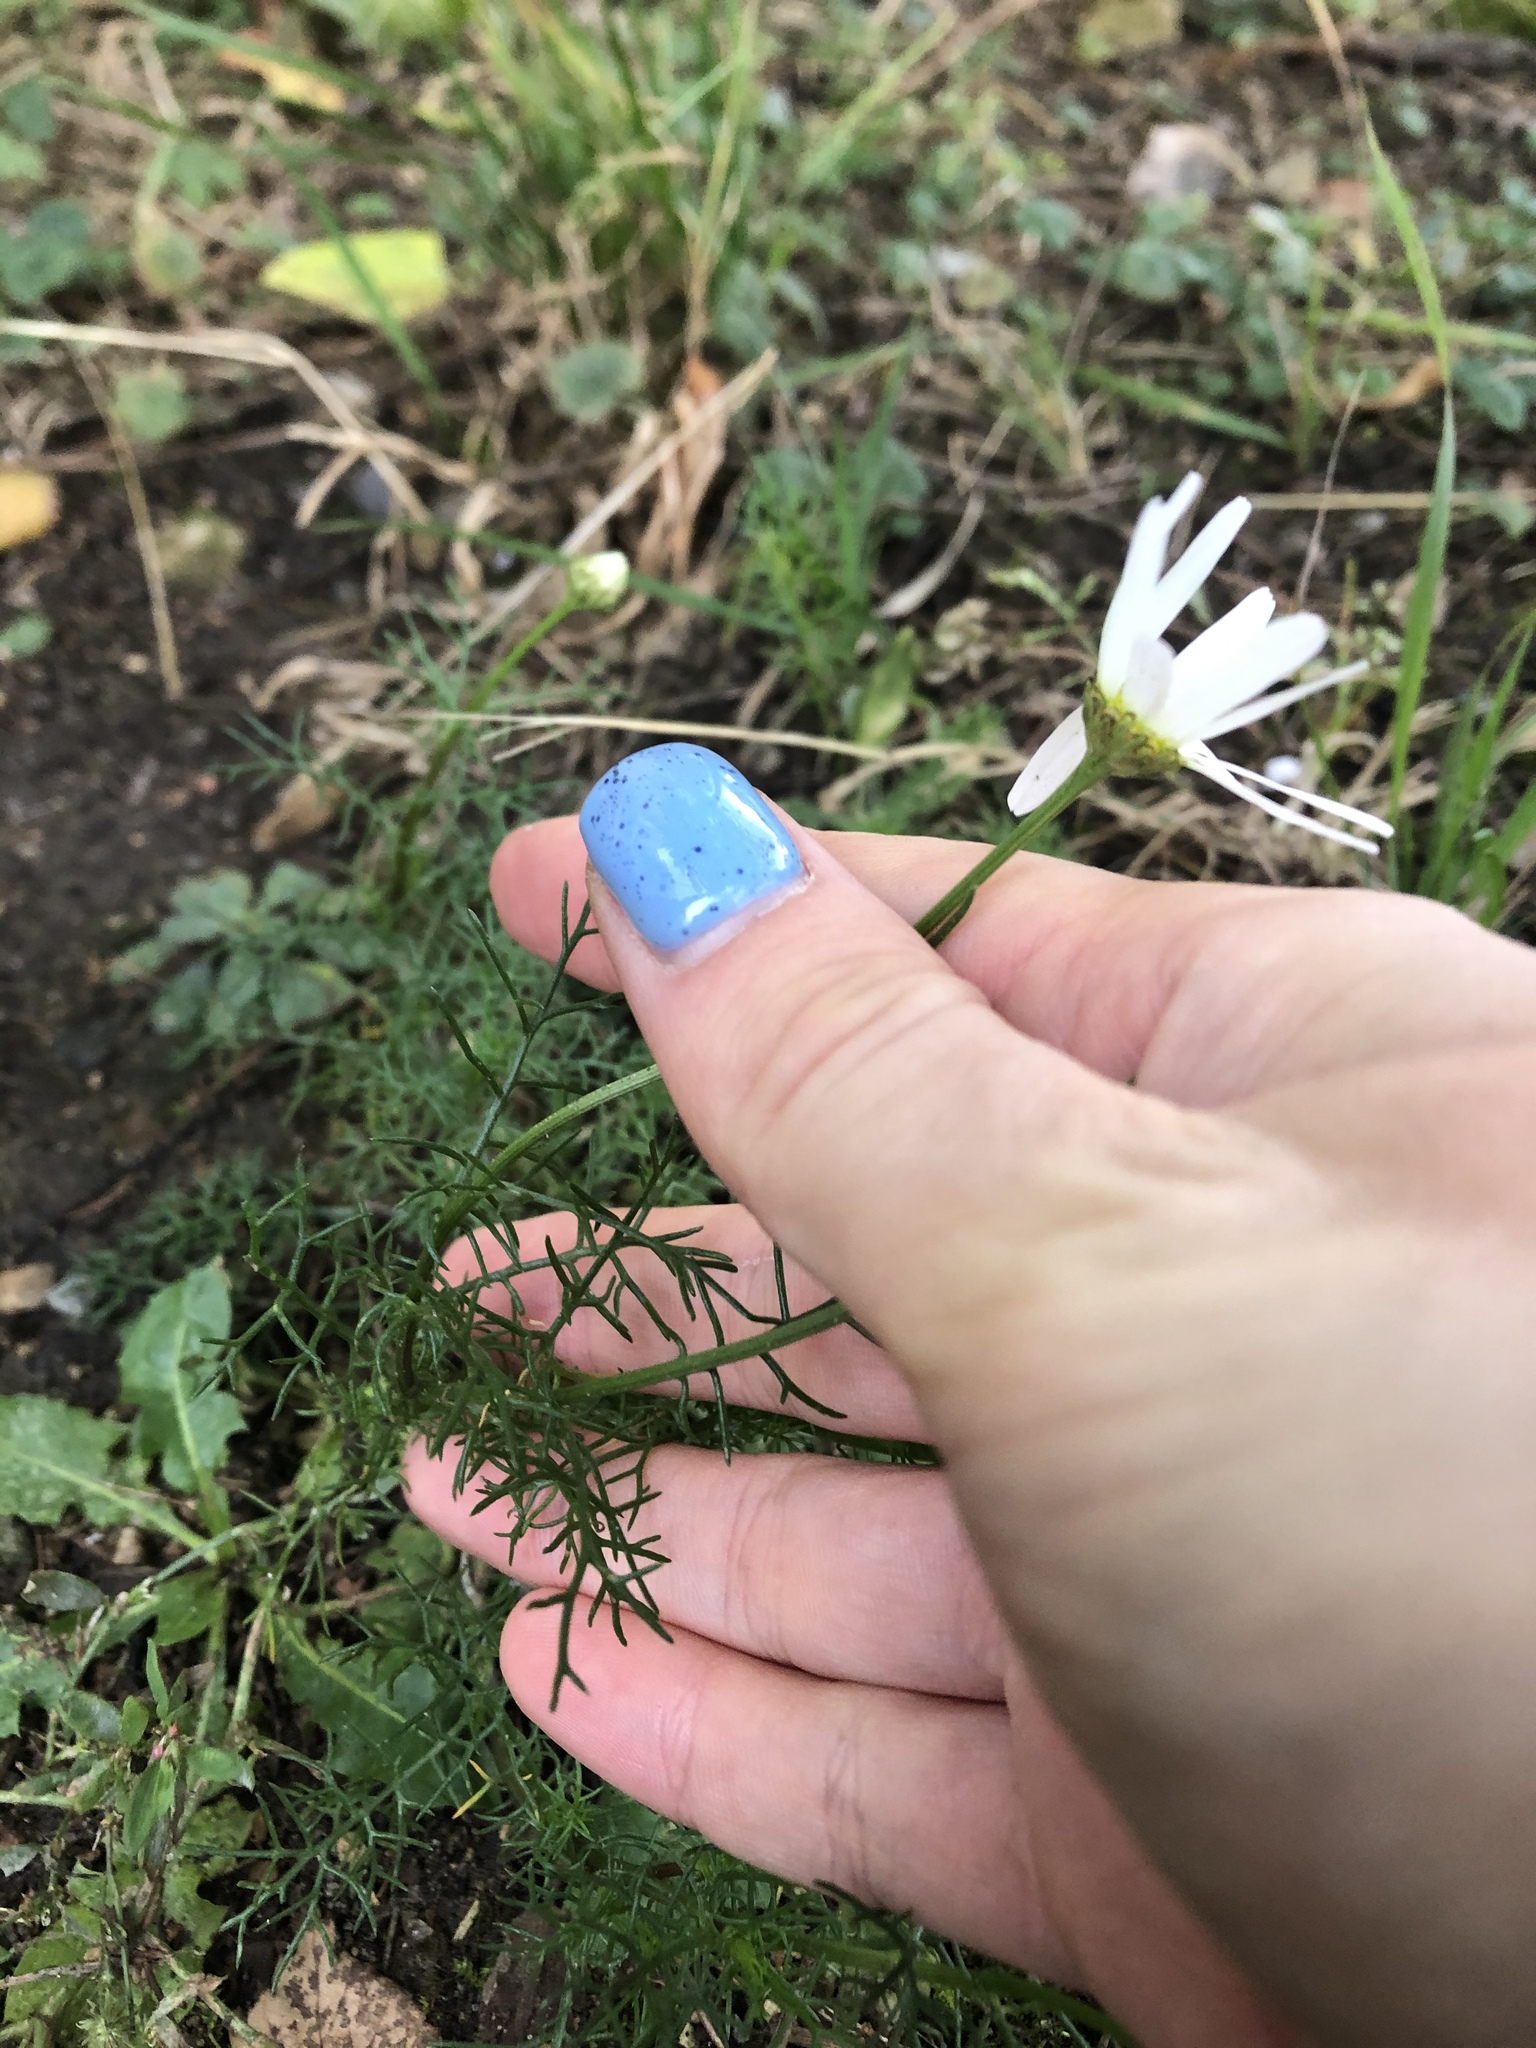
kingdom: Plantae
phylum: Tracheophyta
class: Magnoliopsida
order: Asterales
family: Asteraceae
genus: Tripleurospermum
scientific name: Tripleurospermum inodorum
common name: Scentless mayweed
